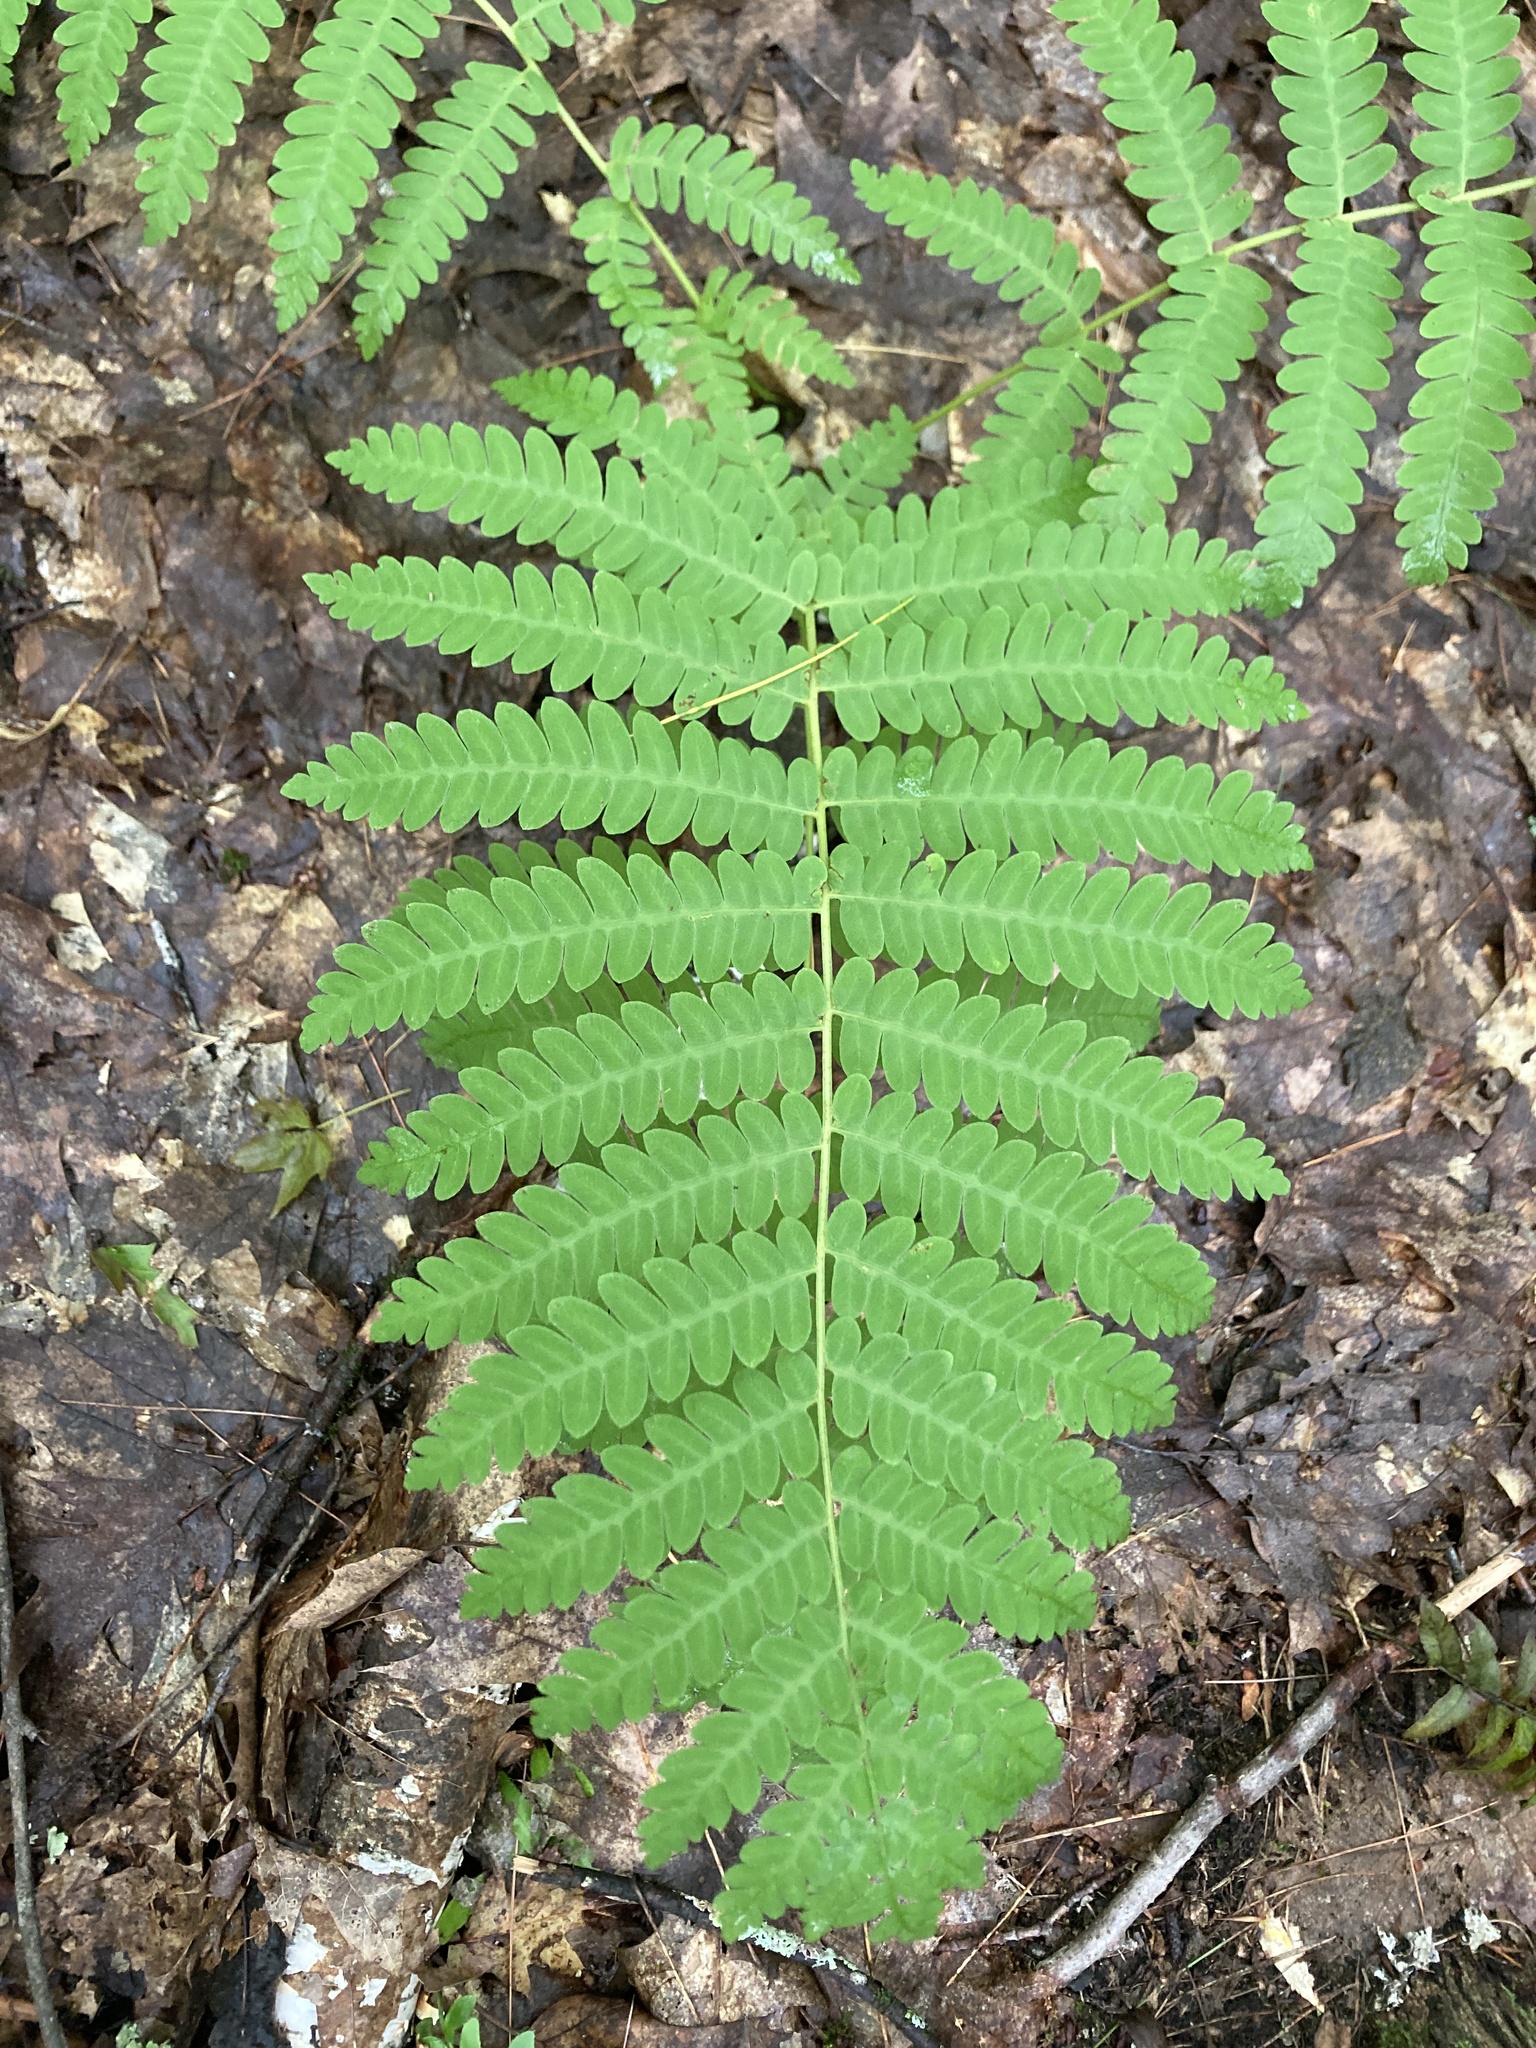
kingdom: Plantae
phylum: Tracheophyta
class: Polypodiopsida
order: Osmundales
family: Osmundaceae
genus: Claytosmunda
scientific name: Claytosmunda claytoniana
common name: Clayton's fern
